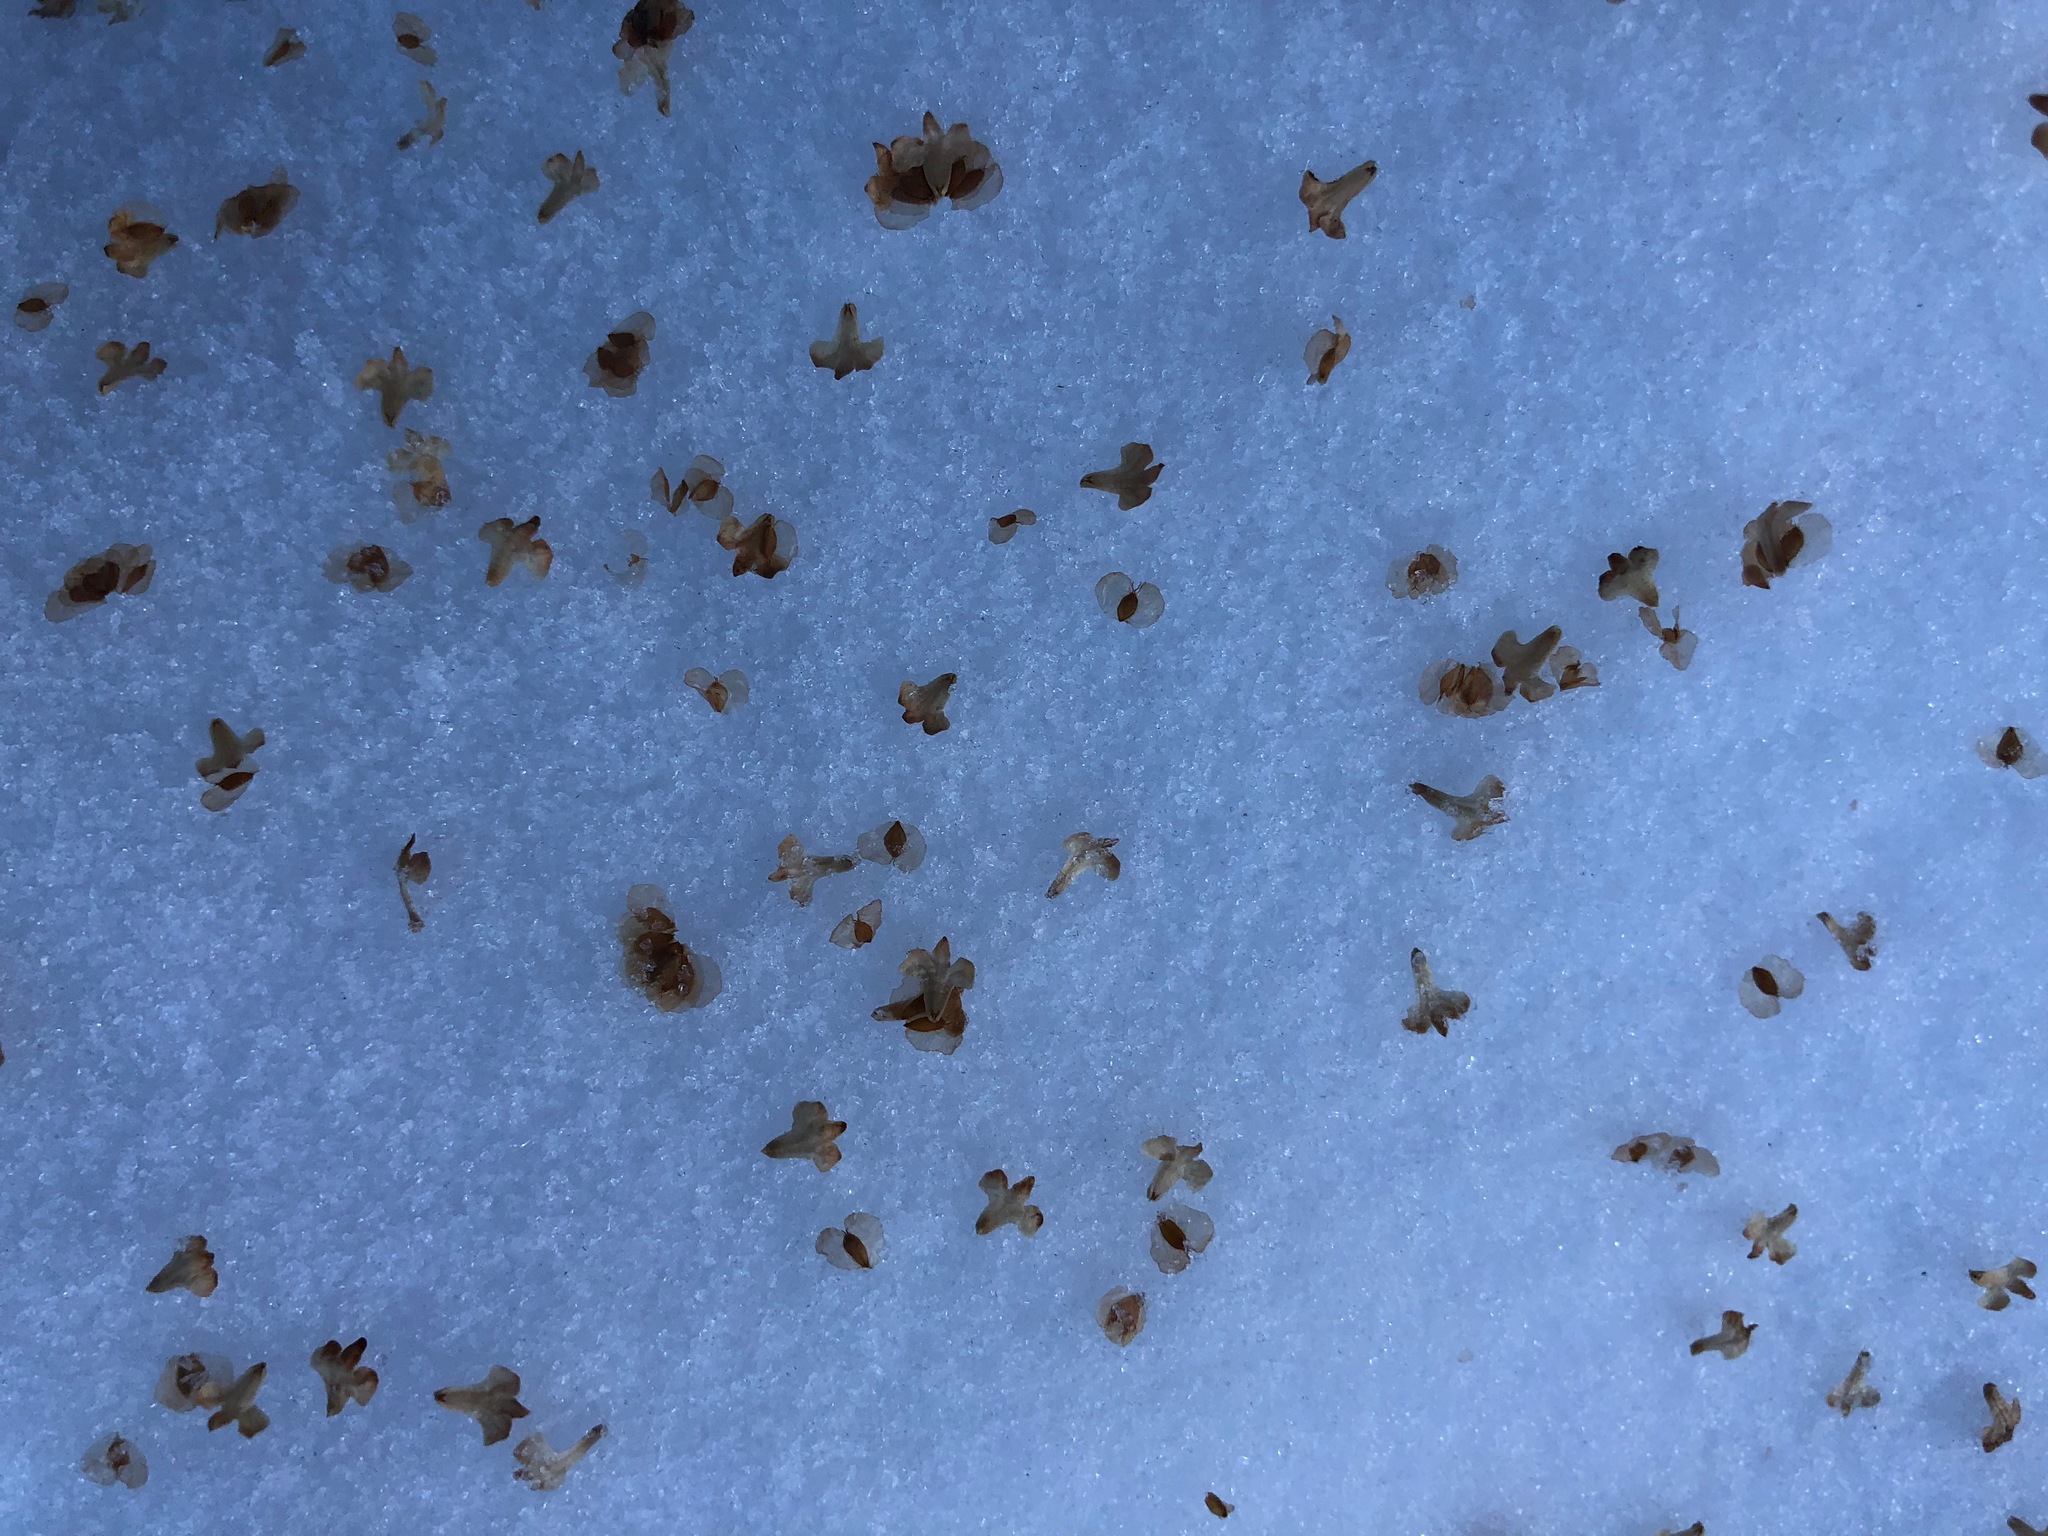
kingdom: Plantae
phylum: Tracheophyta
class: Magnoliopsida
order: Fagales
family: Betulaceae
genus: Betula
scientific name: Betula pendula
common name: Silver birch
